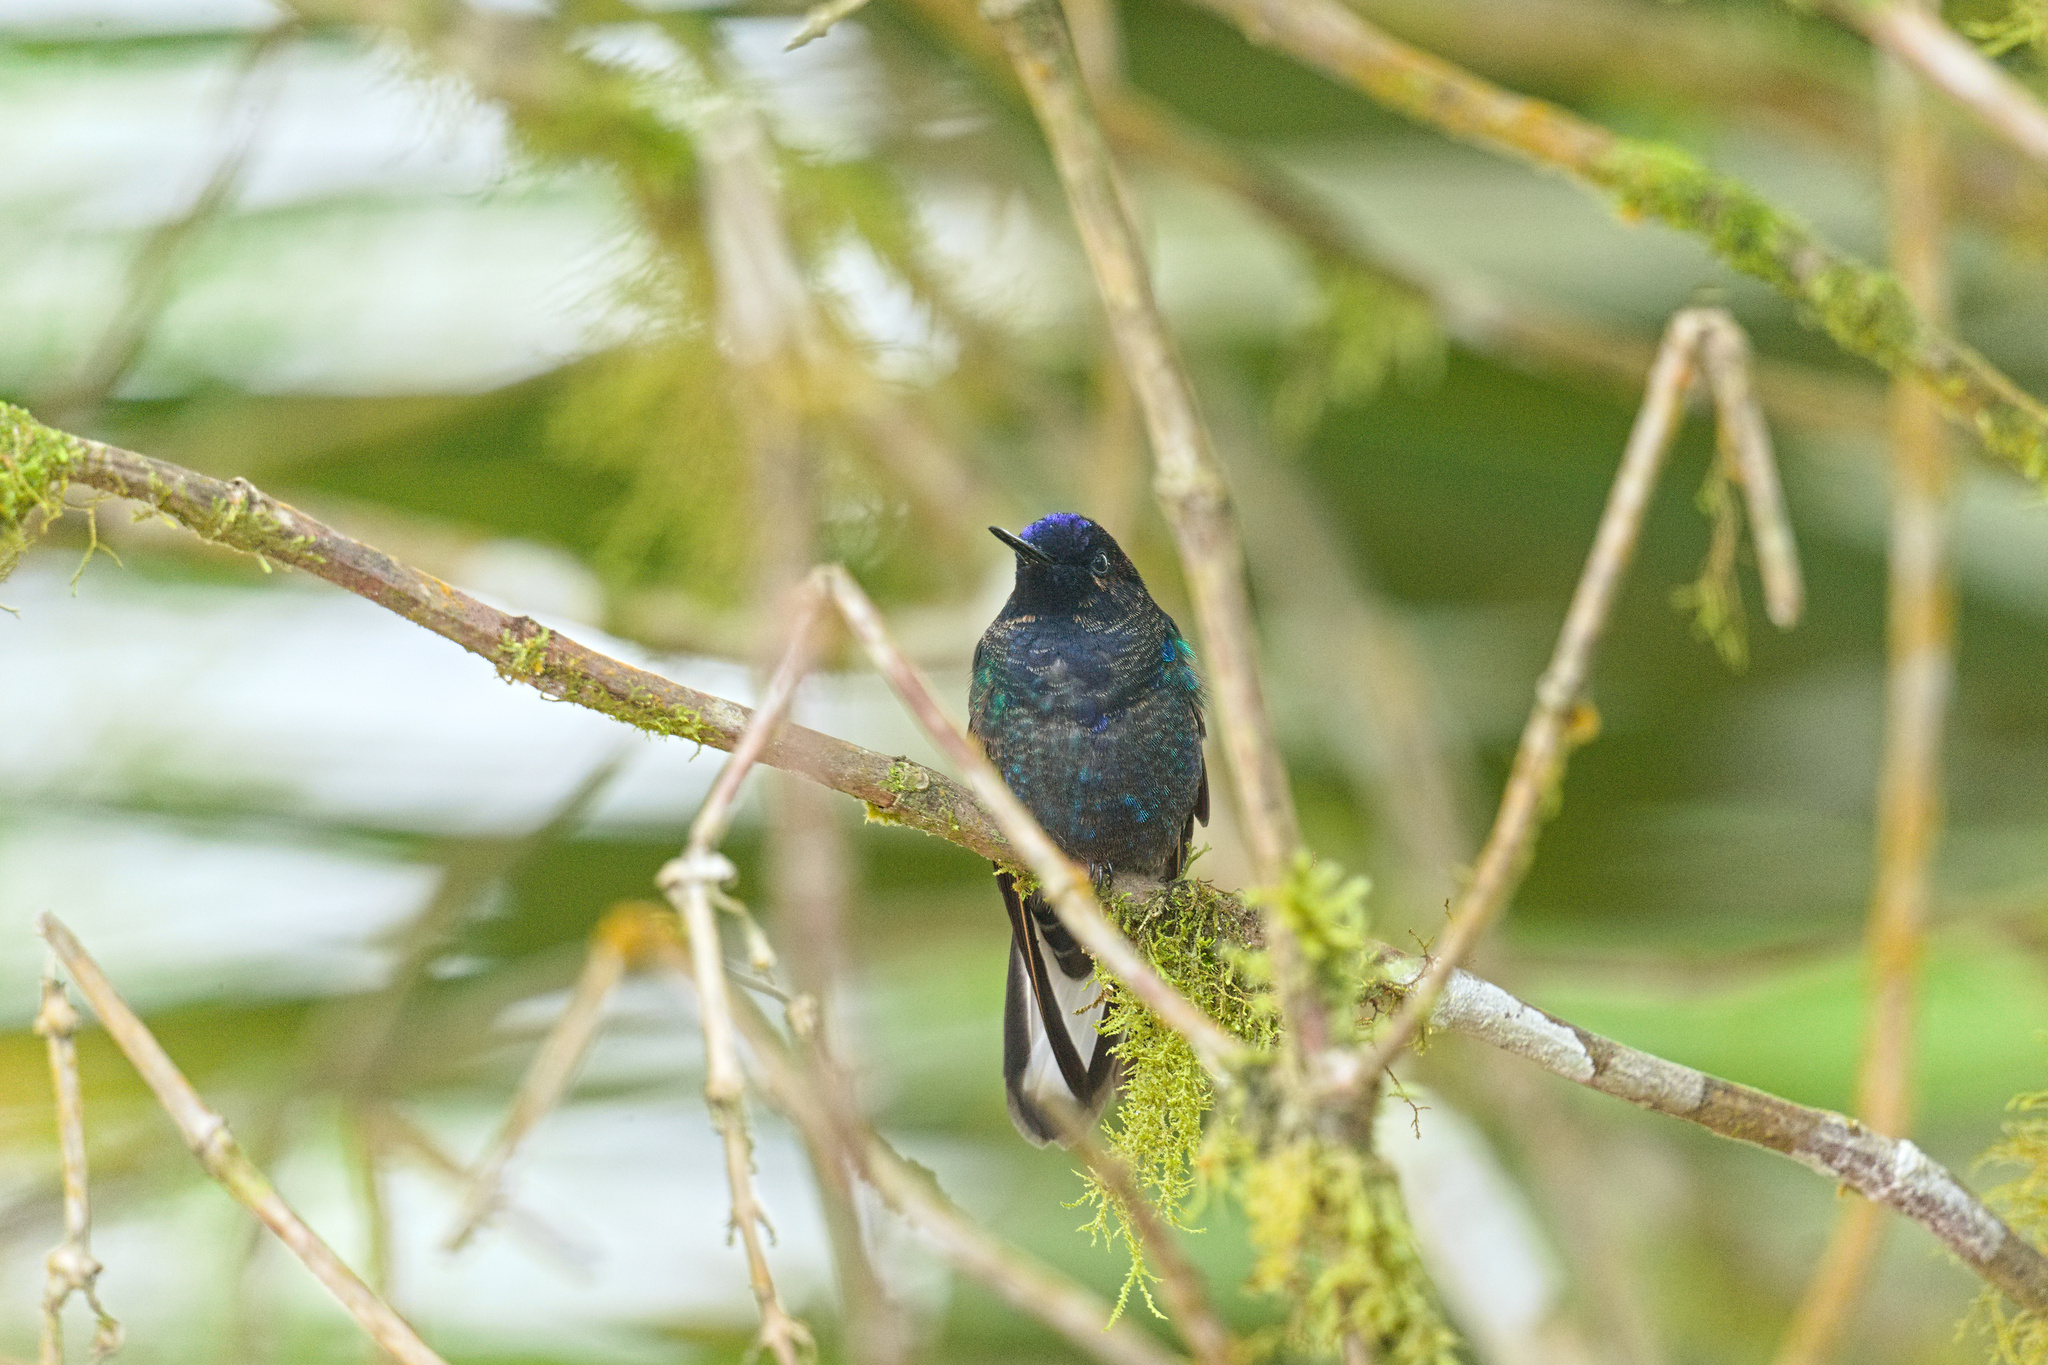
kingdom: Animalia
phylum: Chordata
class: Aves
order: Apodiformes
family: Trochilidae
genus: Boissonneaua
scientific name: Boissonneaua jardini
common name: Velvet-purple coronet
